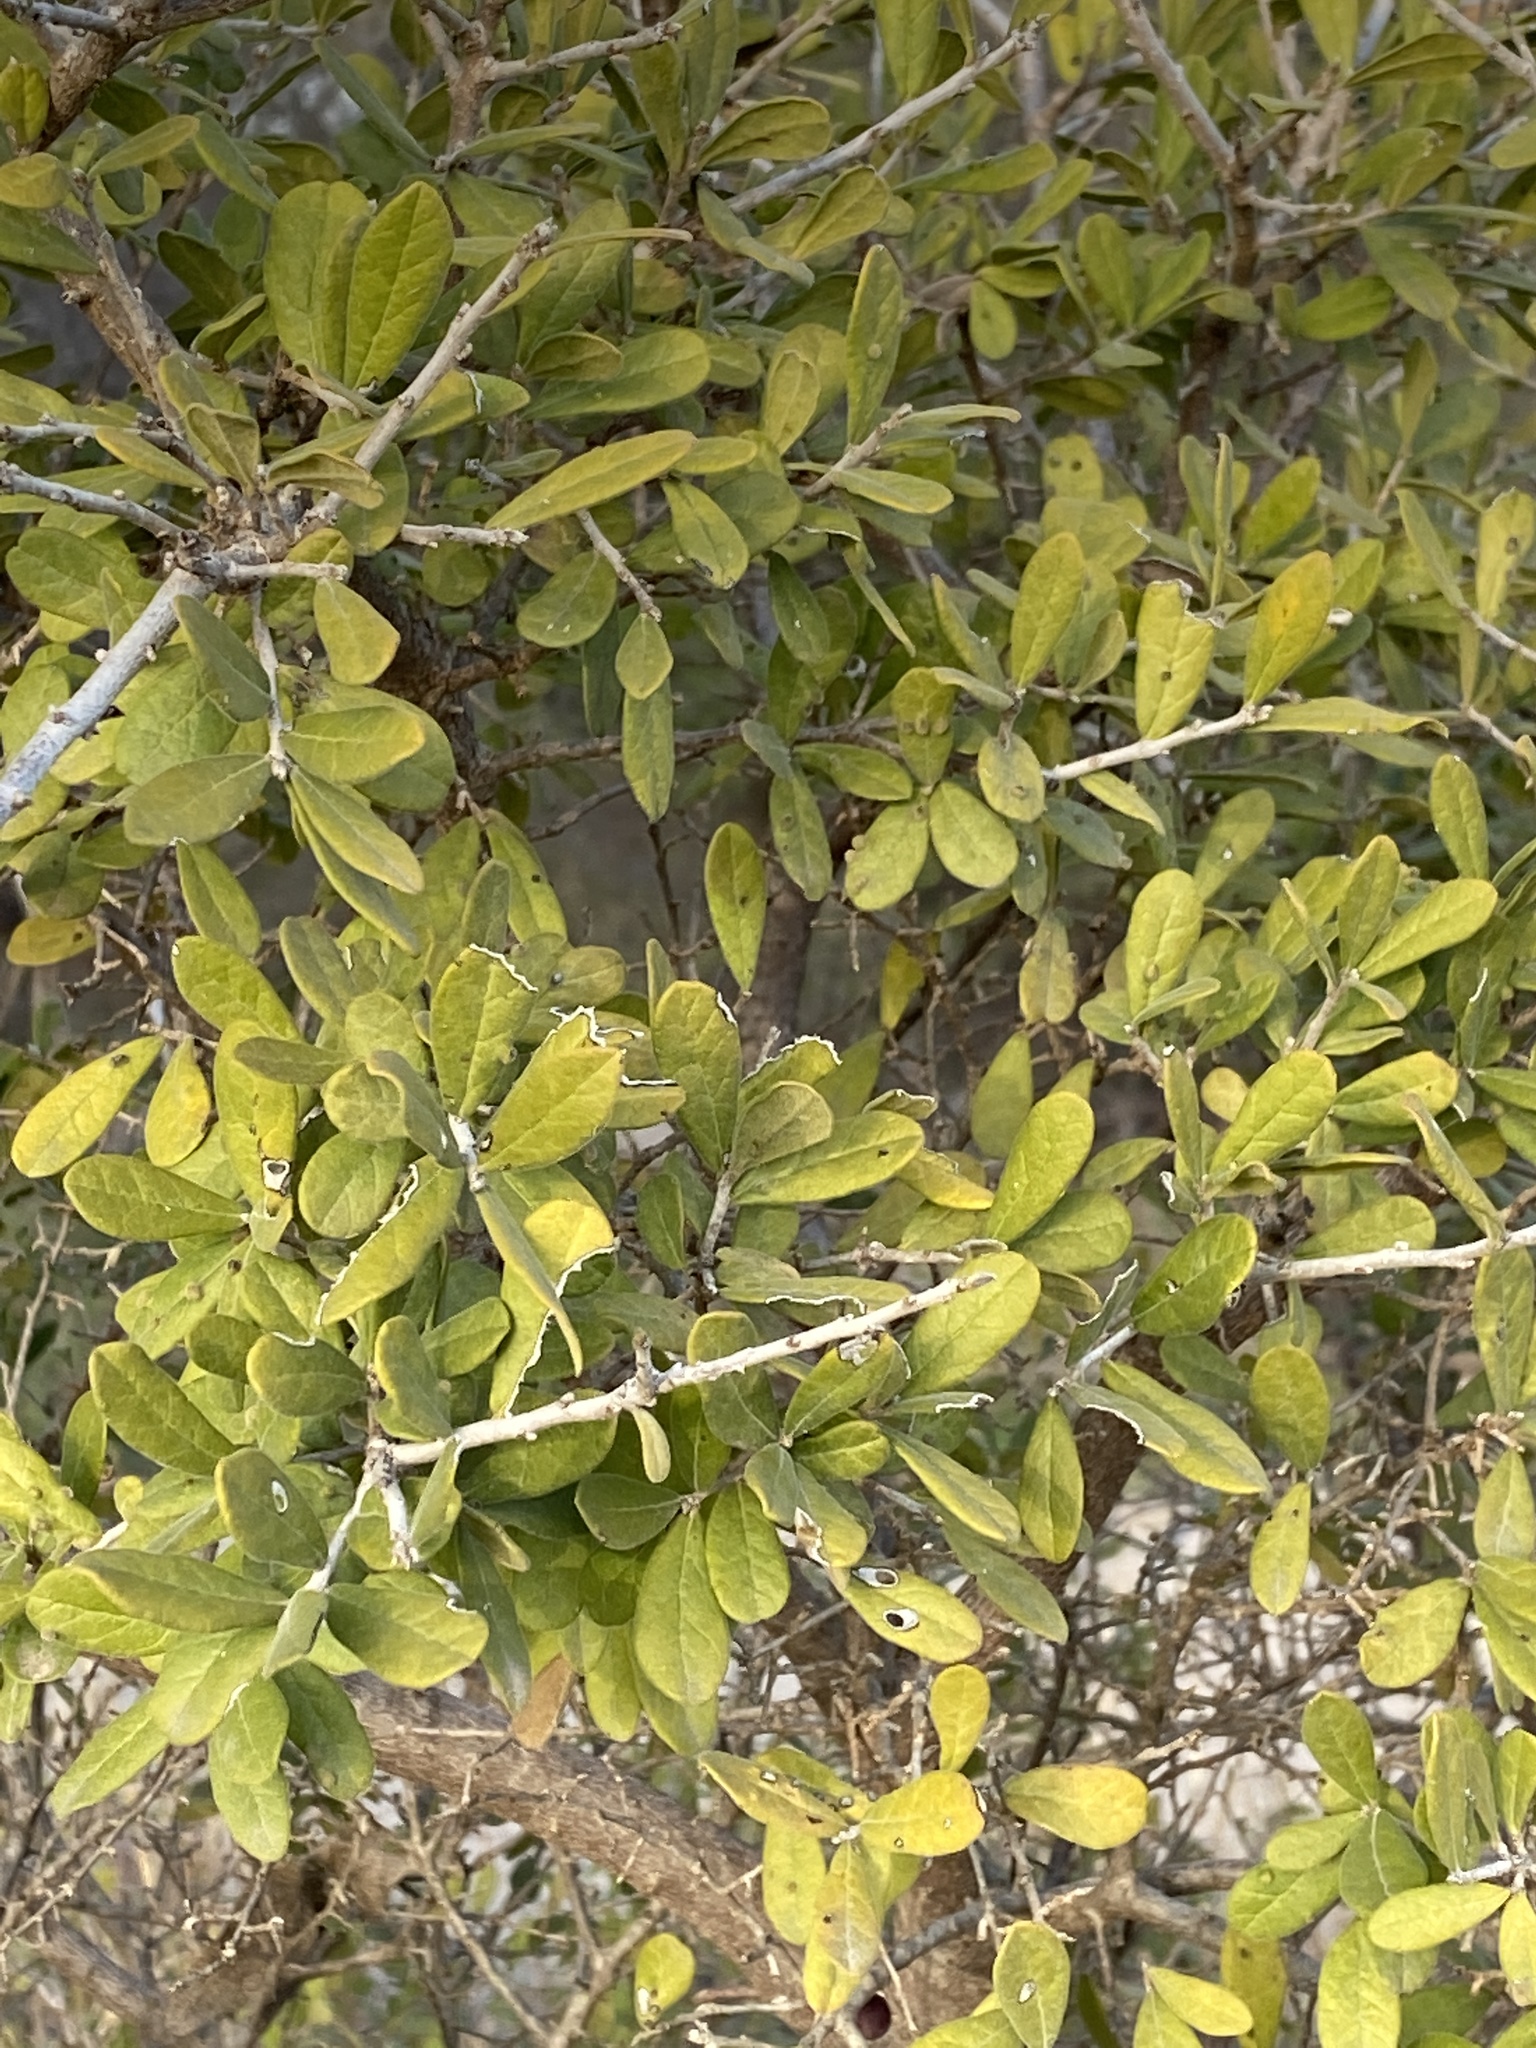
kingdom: Plantae
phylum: Tracheophyta
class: Magnoliopsida
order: Ericales
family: Ebenaceae
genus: Diospyros
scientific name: Diospyros texana
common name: Texas persimmon
